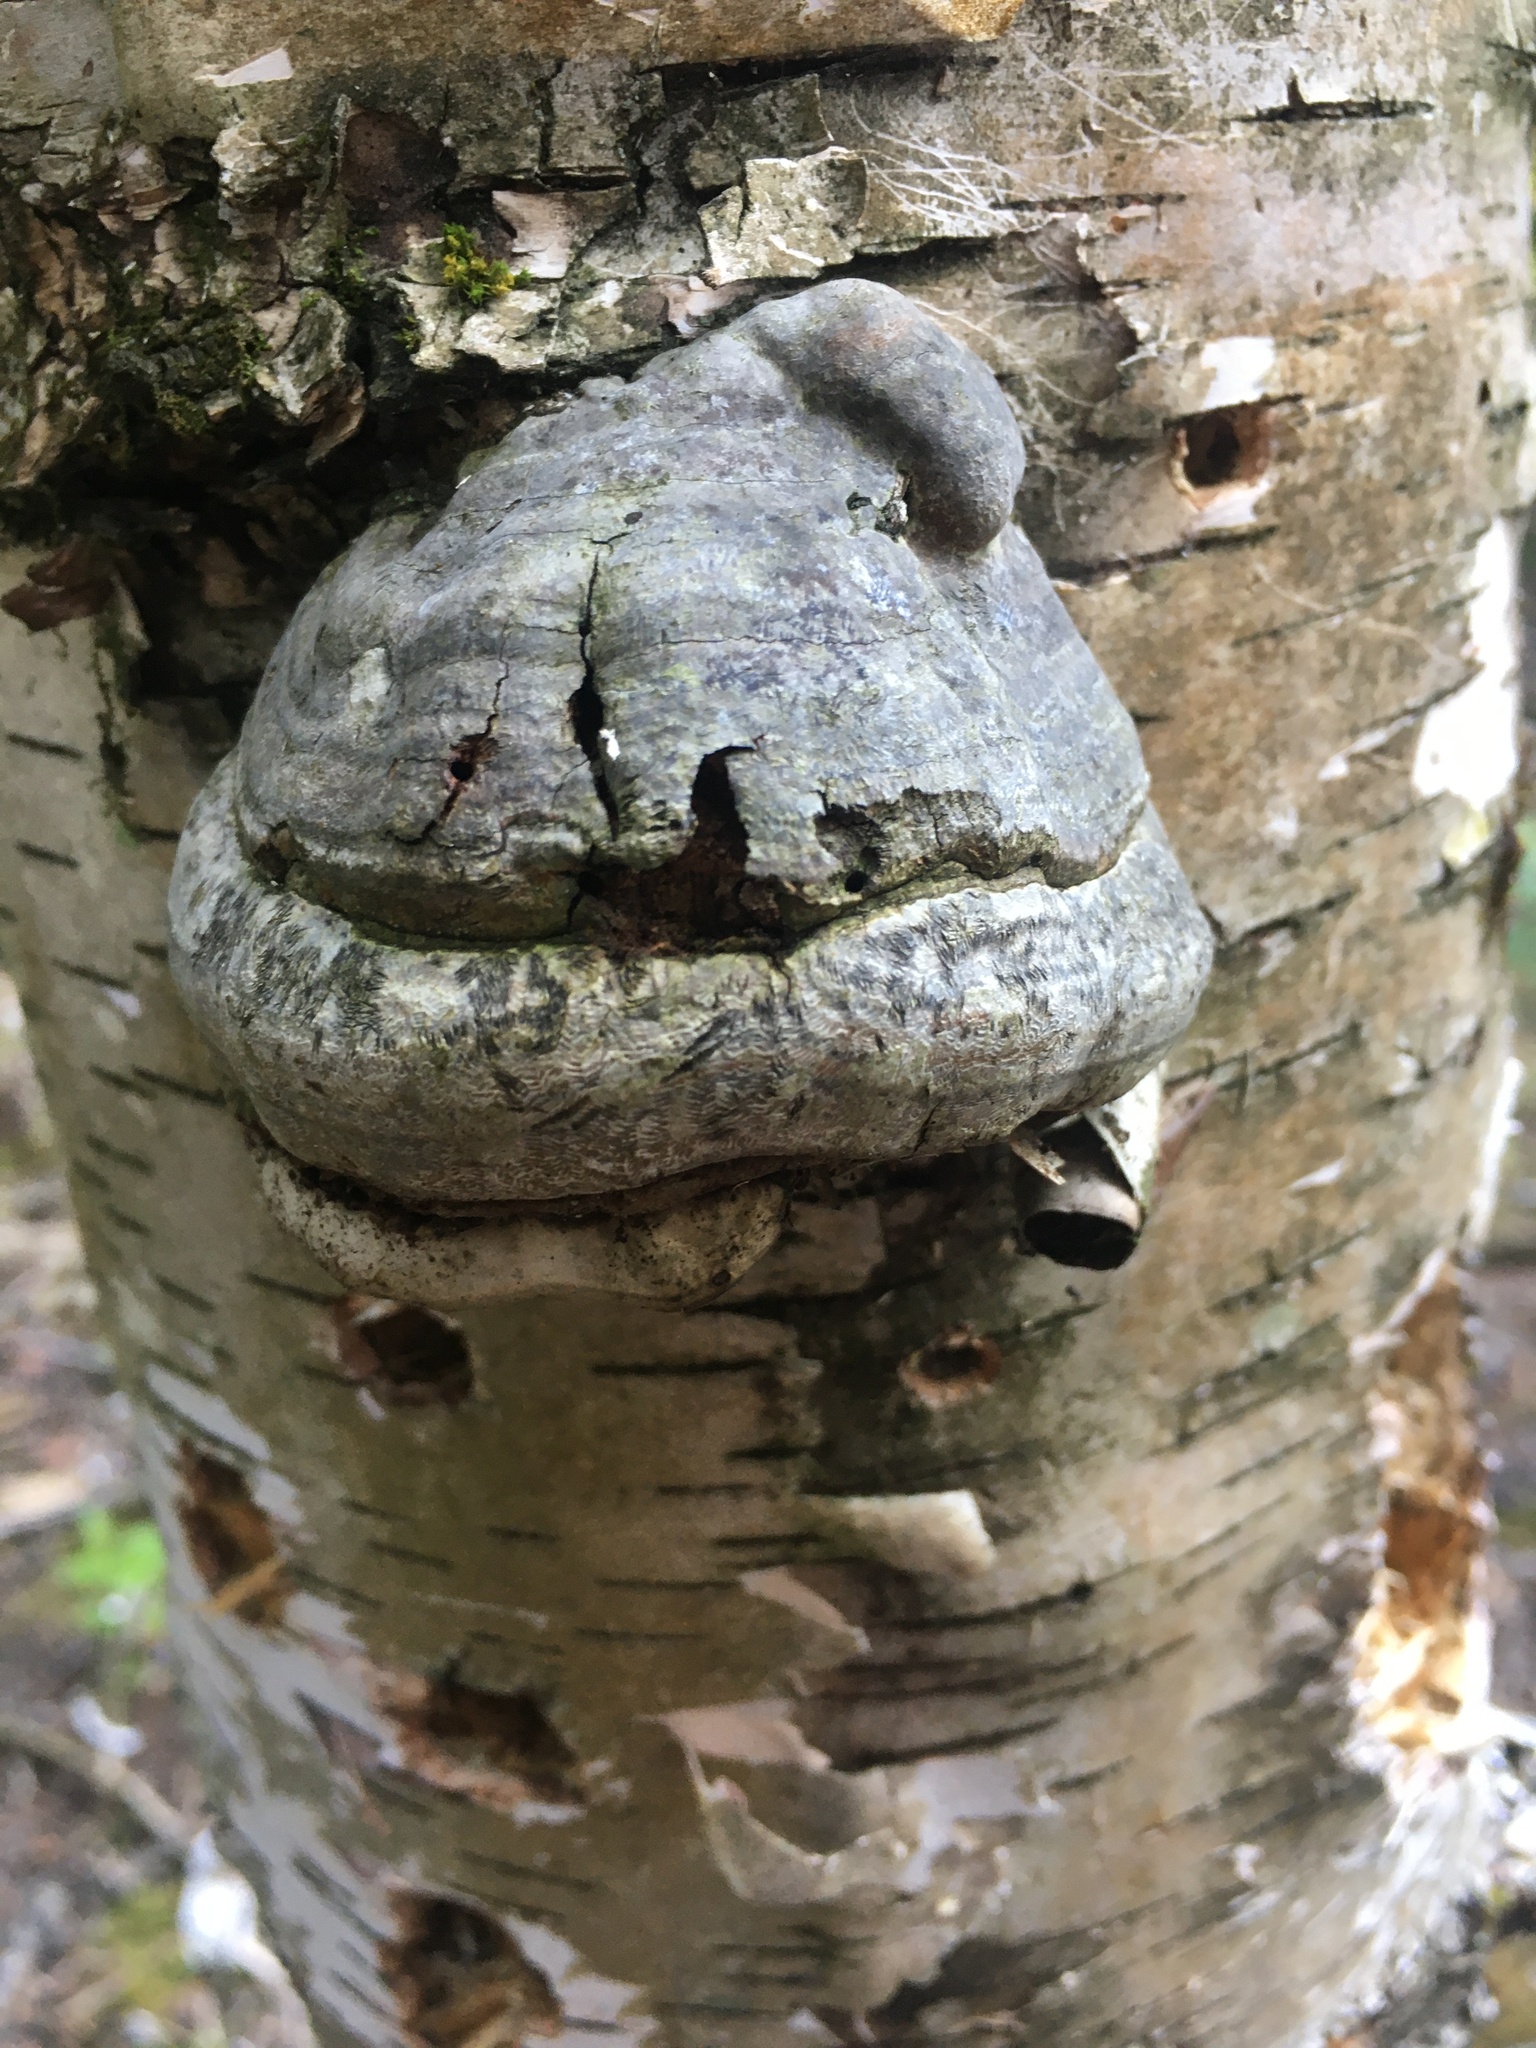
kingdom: Fungi
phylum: Basidiomycota
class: Agaricomycetes
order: Polyporales
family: Polyporaceae
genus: Fomes
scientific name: Fomes fomentarius
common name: Hoof fungus
